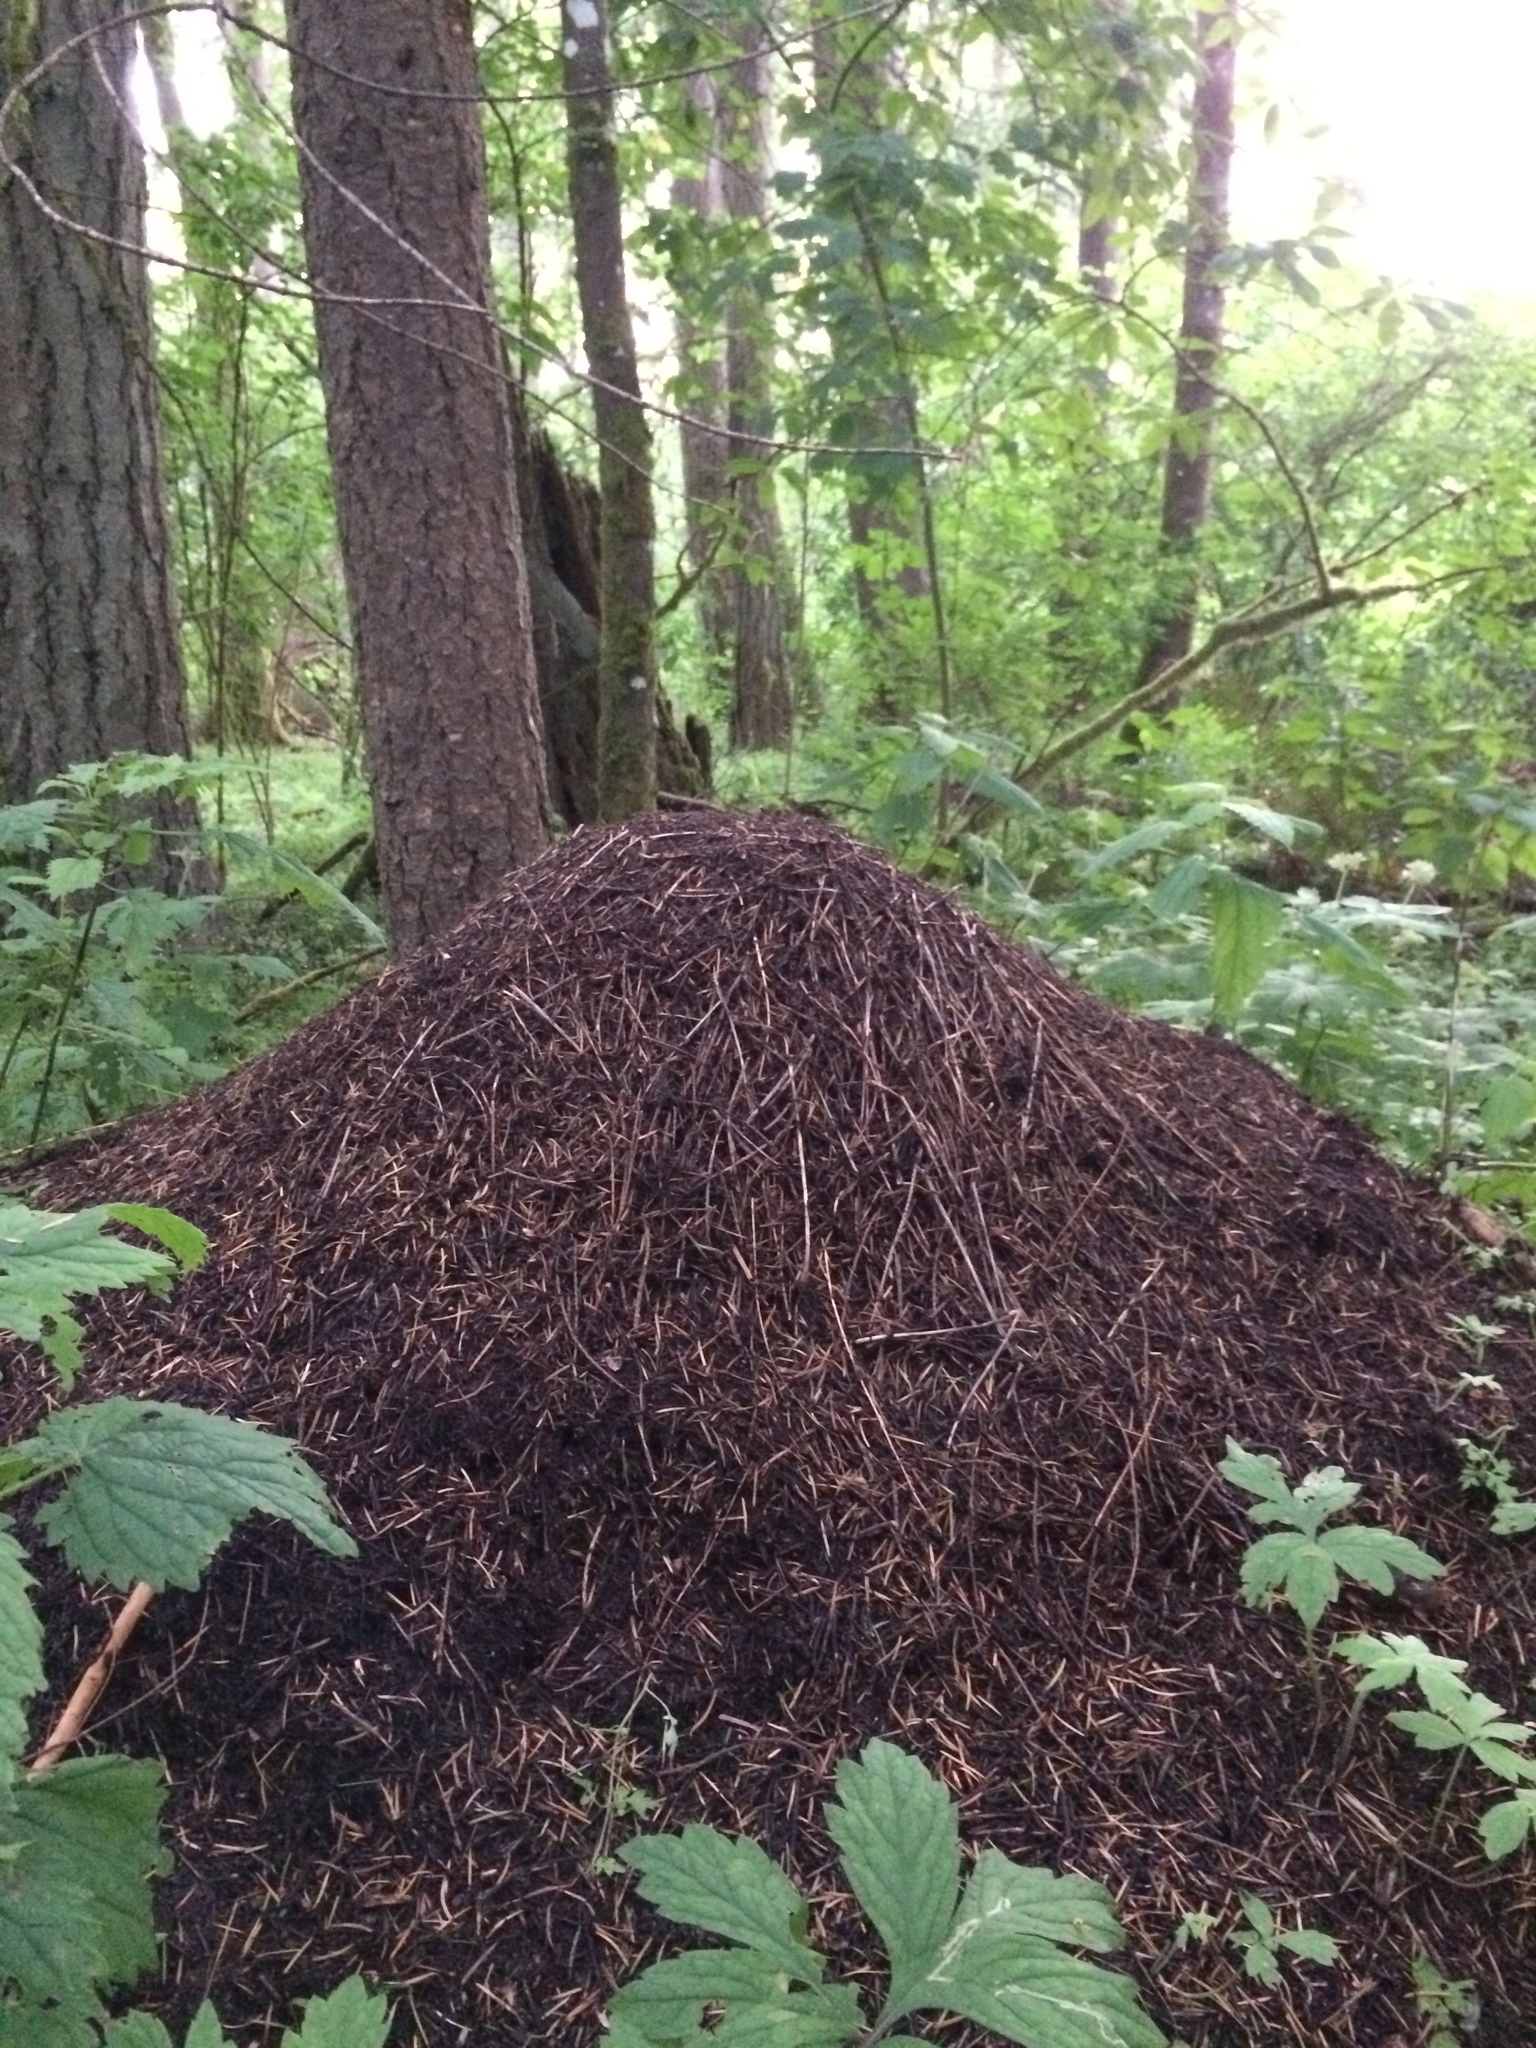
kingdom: Animalia
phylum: Arthropoda
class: Insecta
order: Hymenoptera
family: Formicidae
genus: Formica
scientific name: Formica obscuripes
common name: Western thatching ant
